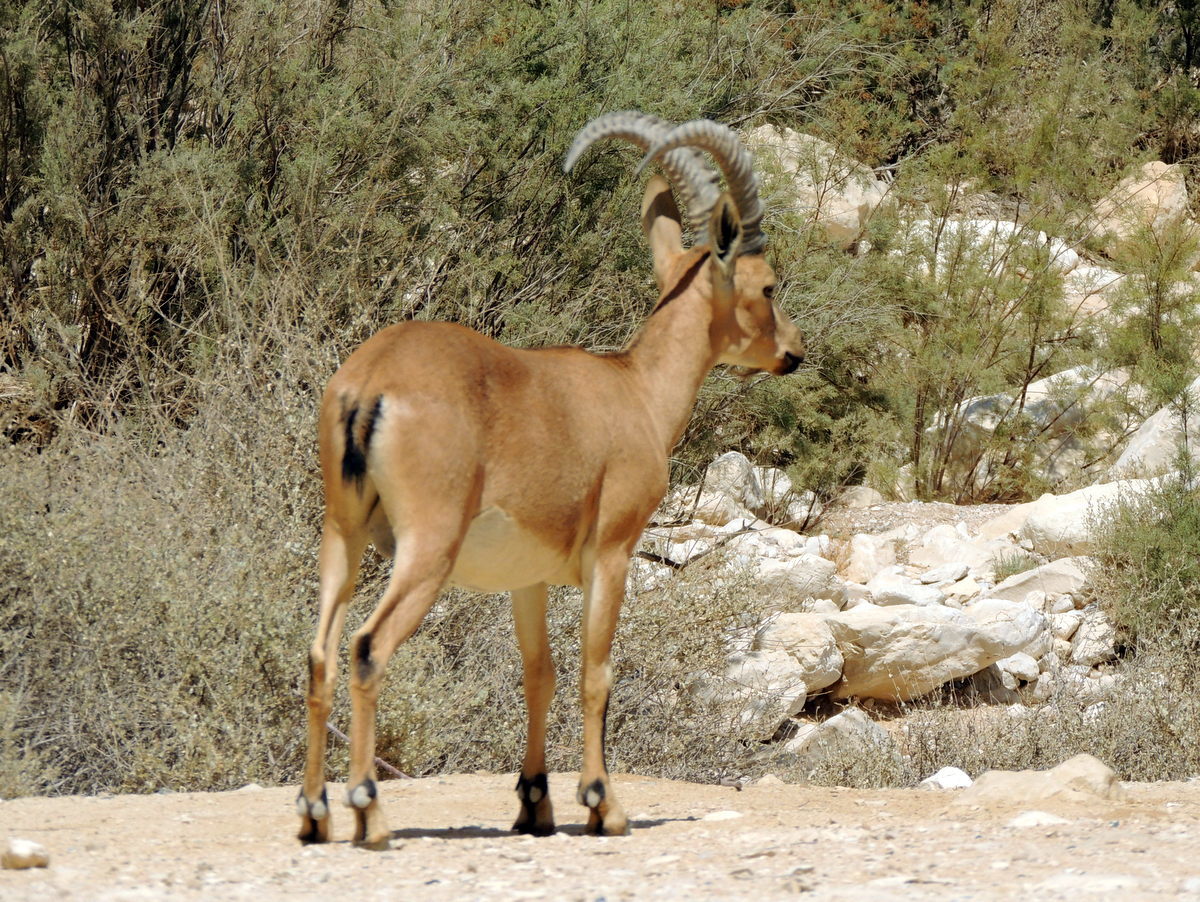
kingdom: Animalia
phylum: Chordata
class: Mammalia
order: Artiodactyla
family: Bovidae
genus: Capra
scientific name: Capra nubiana
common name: Nubian ibex
